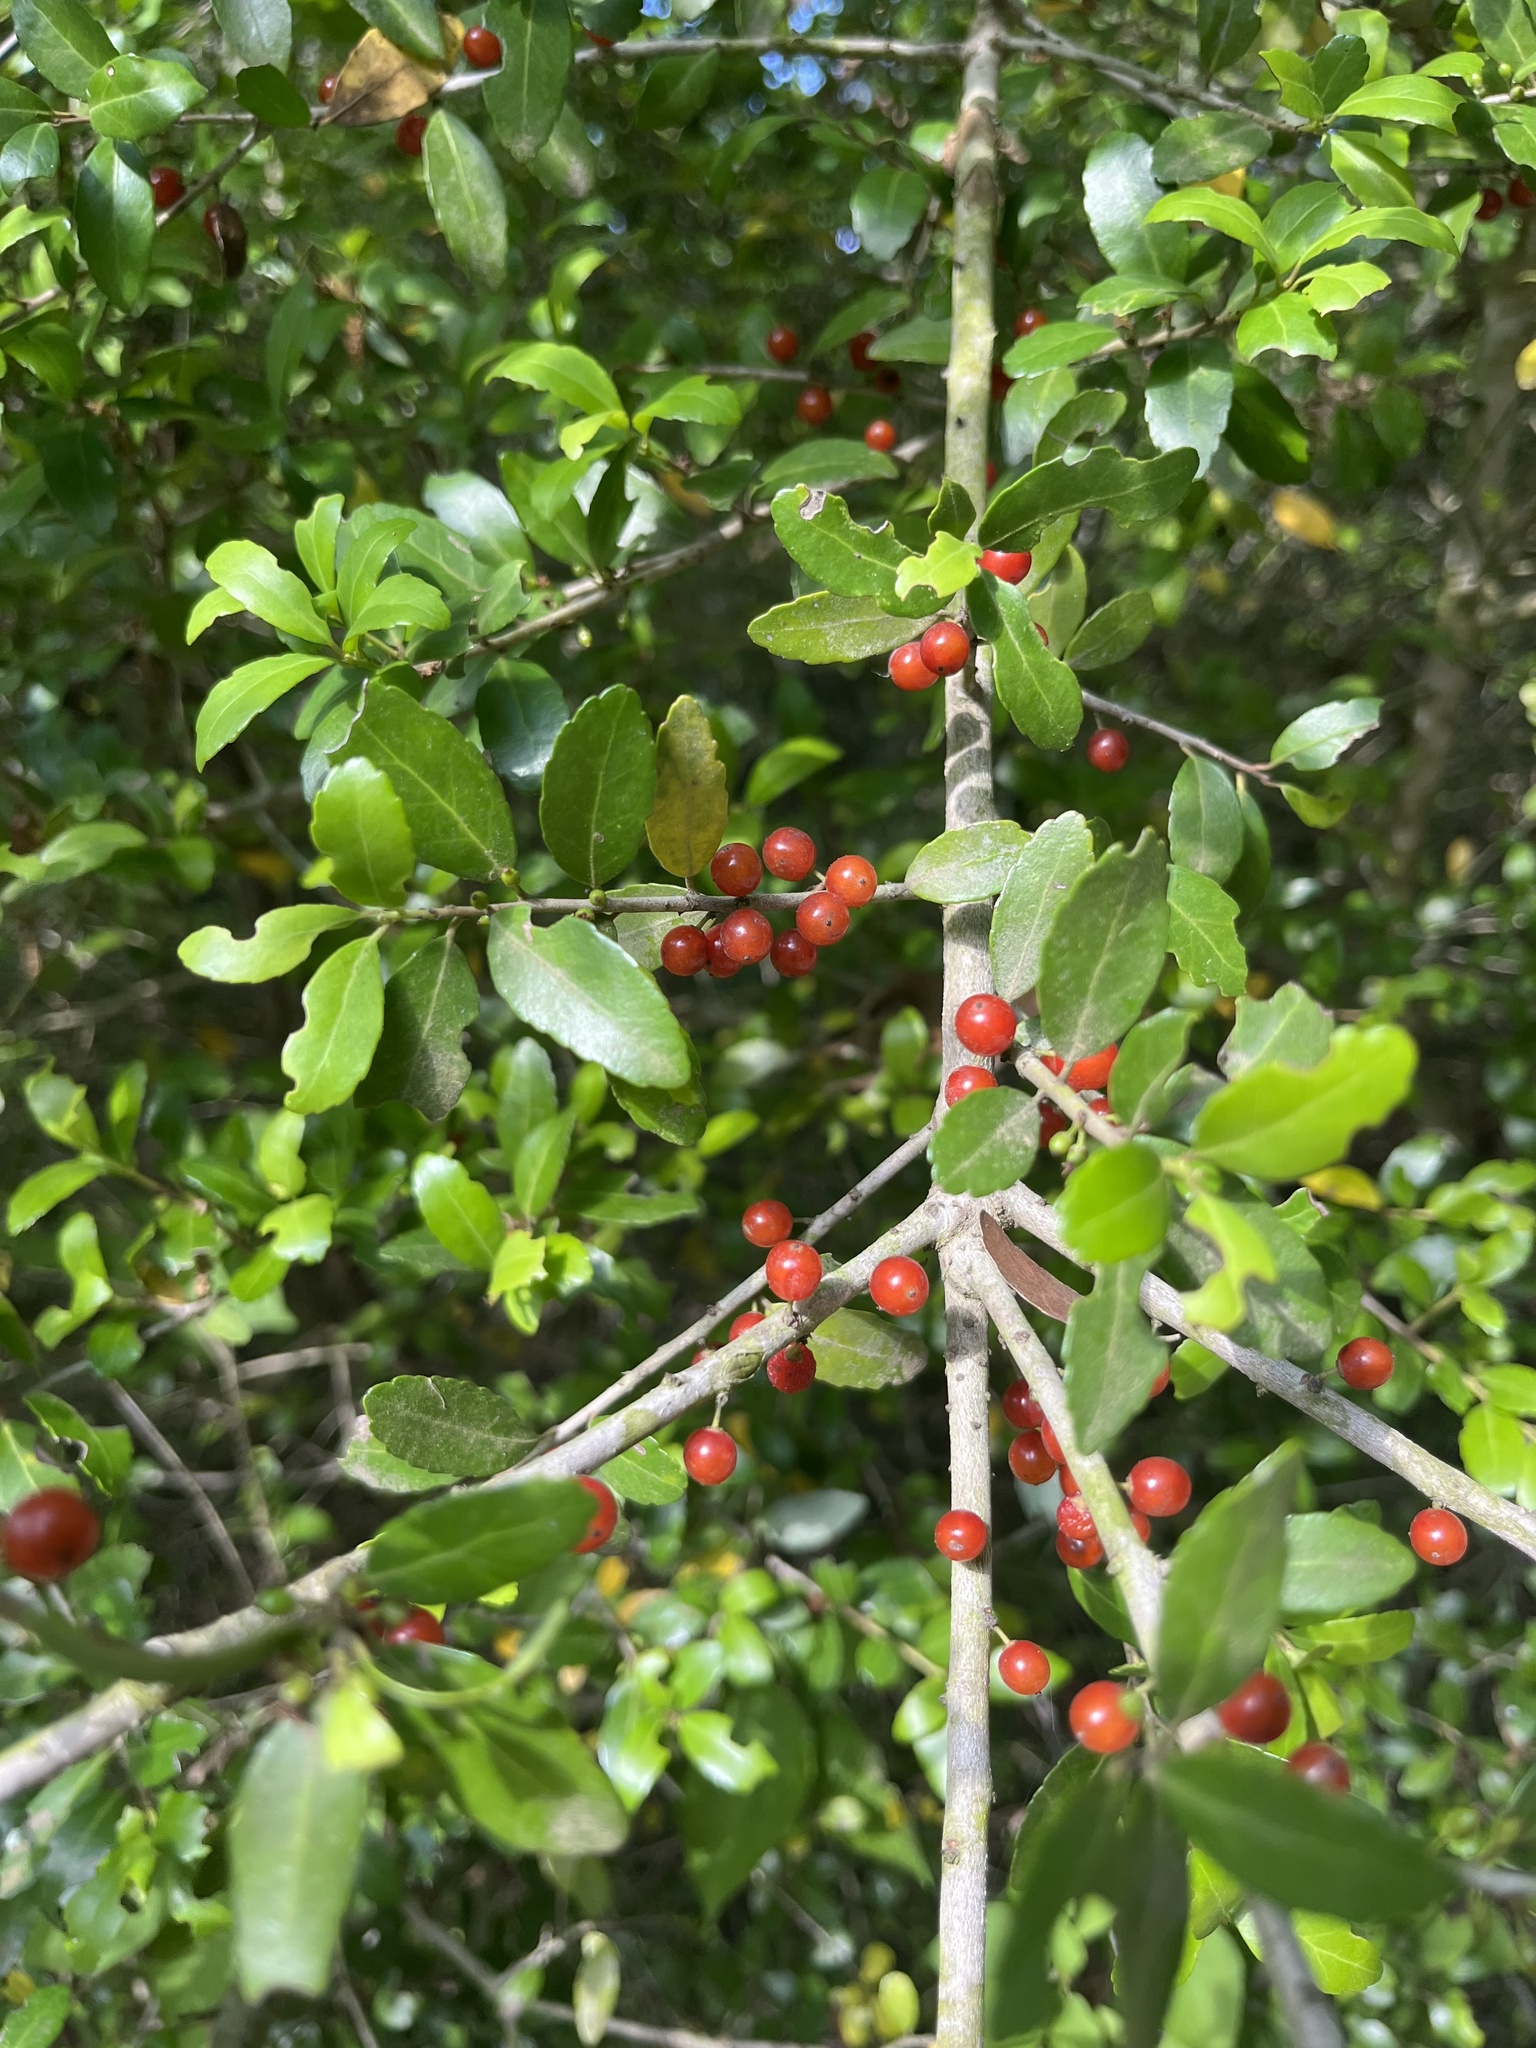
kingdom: Plantae
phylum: Tracheophyta
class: Magnoliopsida
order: Aquifoliales
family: Aquifoliaceae
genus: Ilex
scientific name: Ilex vomitoria
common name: Yaupon holly
